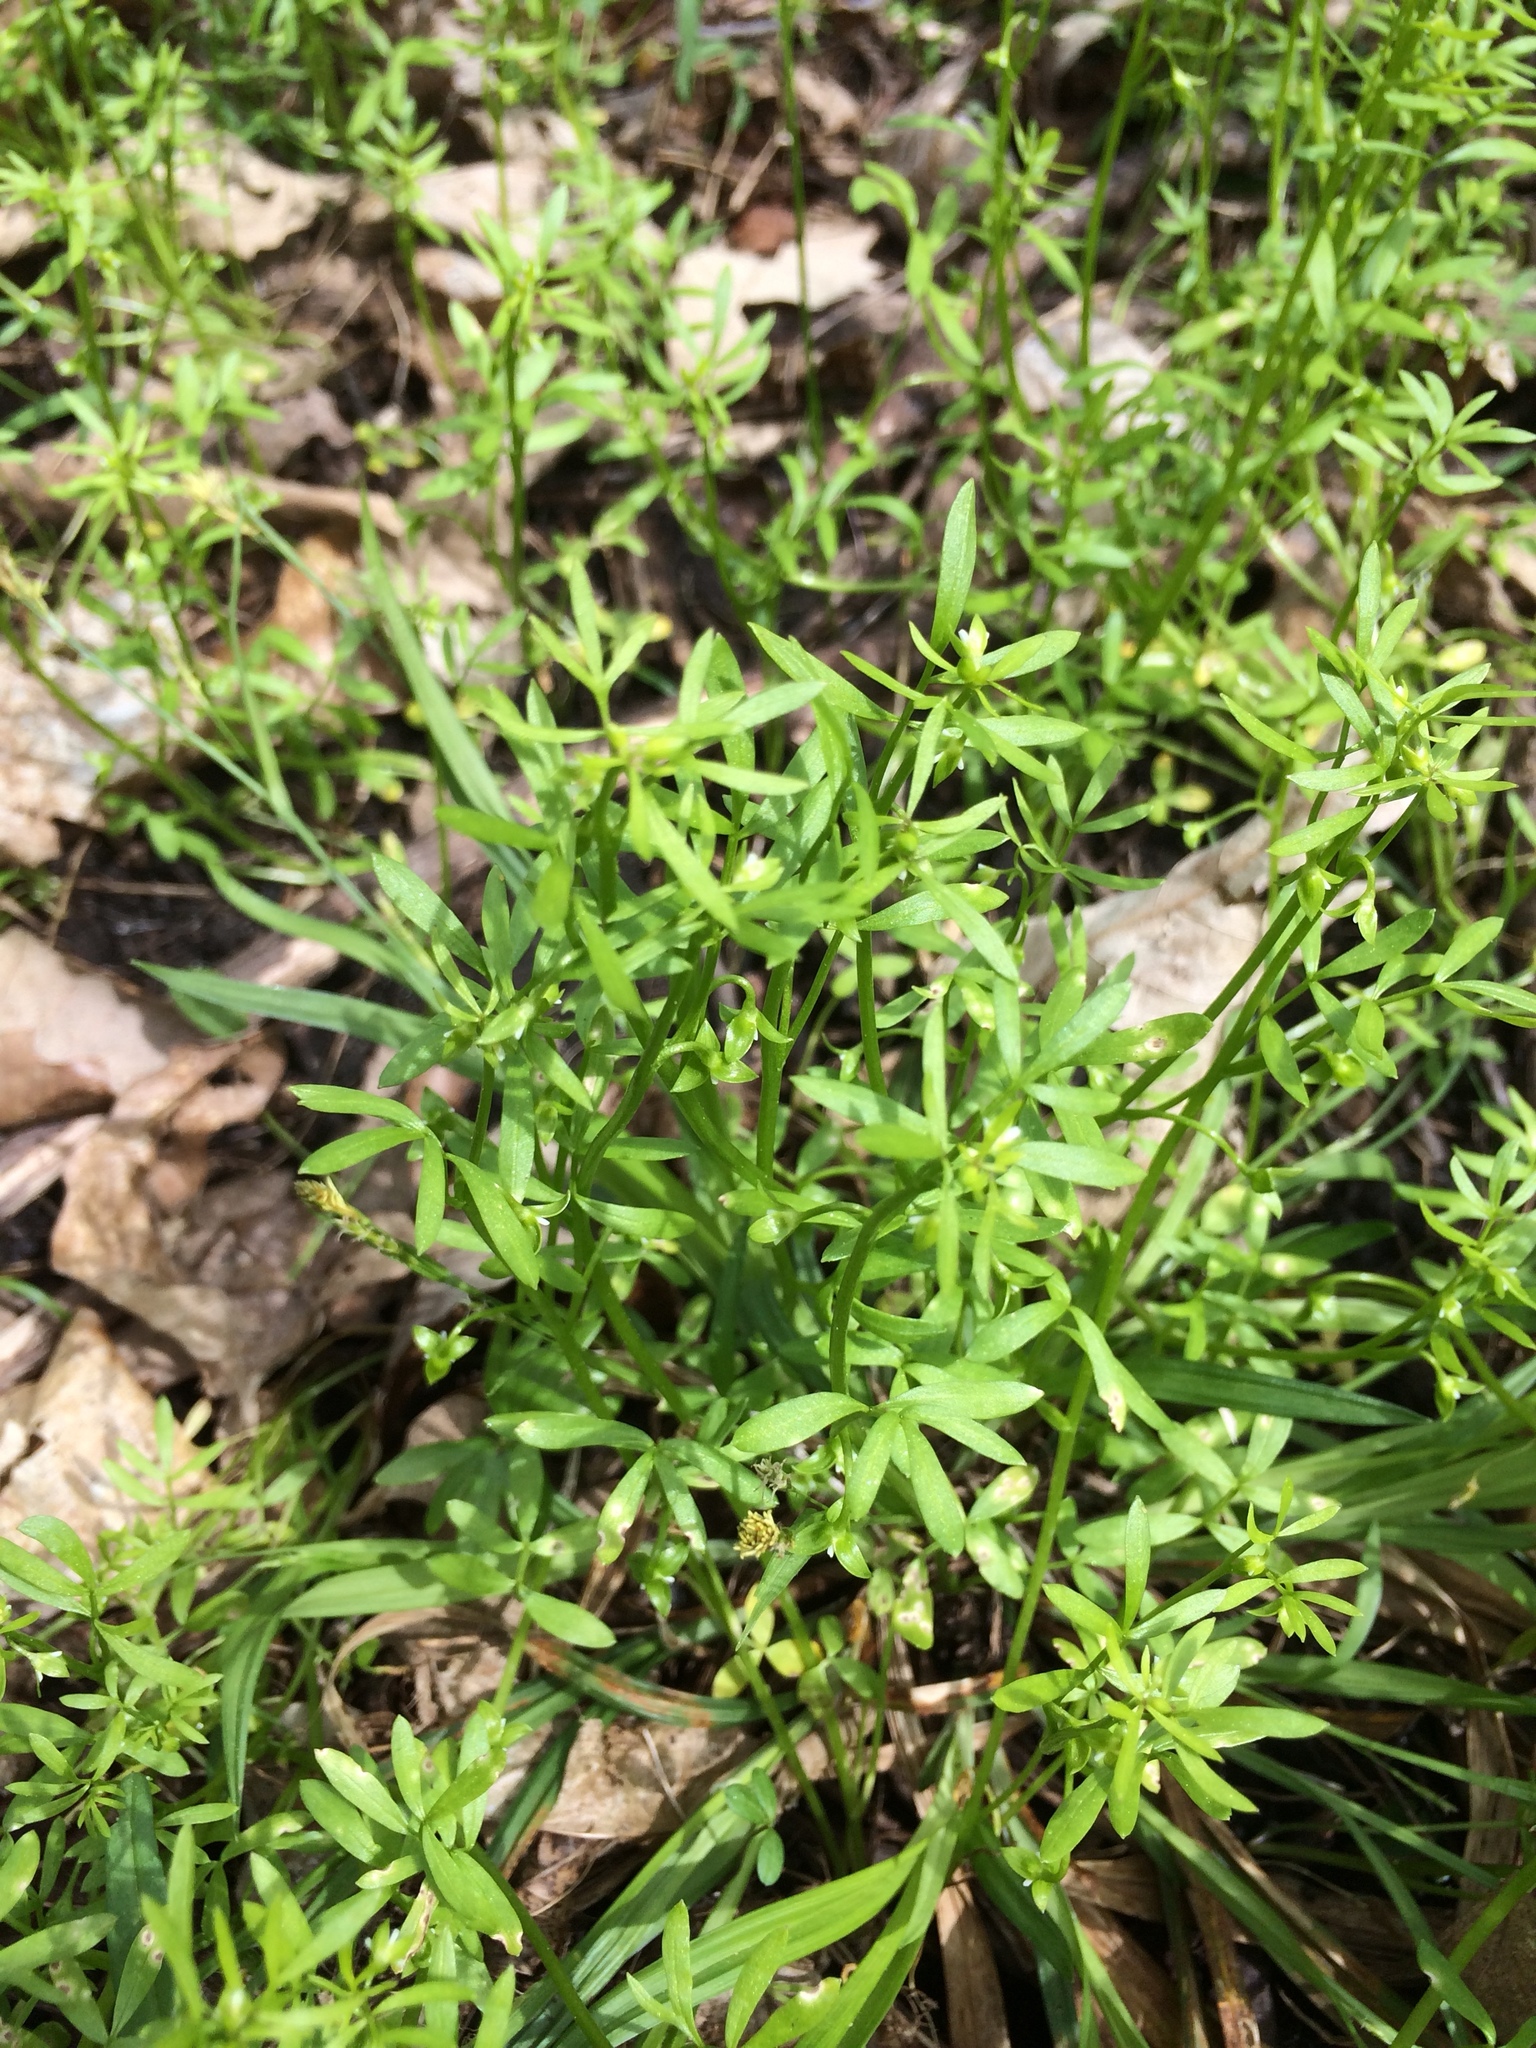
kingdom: Plantae
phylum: Tracheophyta
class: Magnoliopsida
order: Brassicales
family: Limnanthaceae
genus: Floerkea
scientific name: Floerkea proserpinacoides
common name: False mermaid
